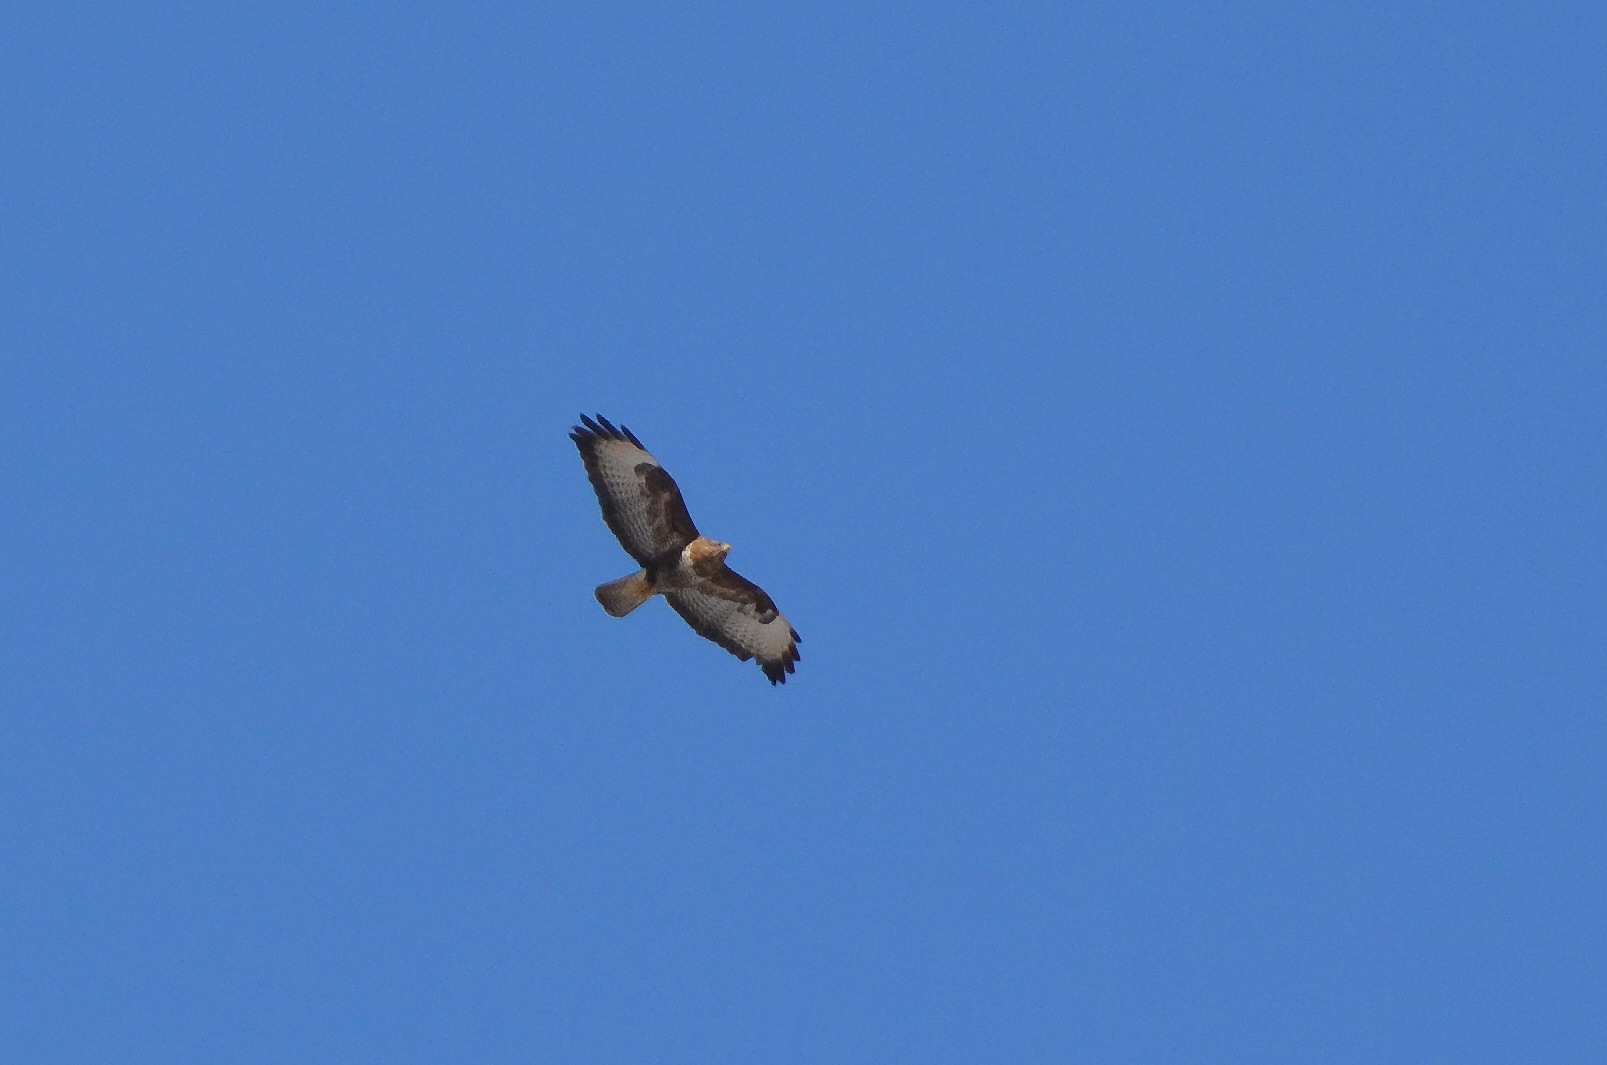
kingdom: Animalia
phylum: Chordata
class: Aves
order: Accipitriformes
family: Accipitridae
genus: Buteo
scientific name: Buteo buteo
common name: Common buzzard
